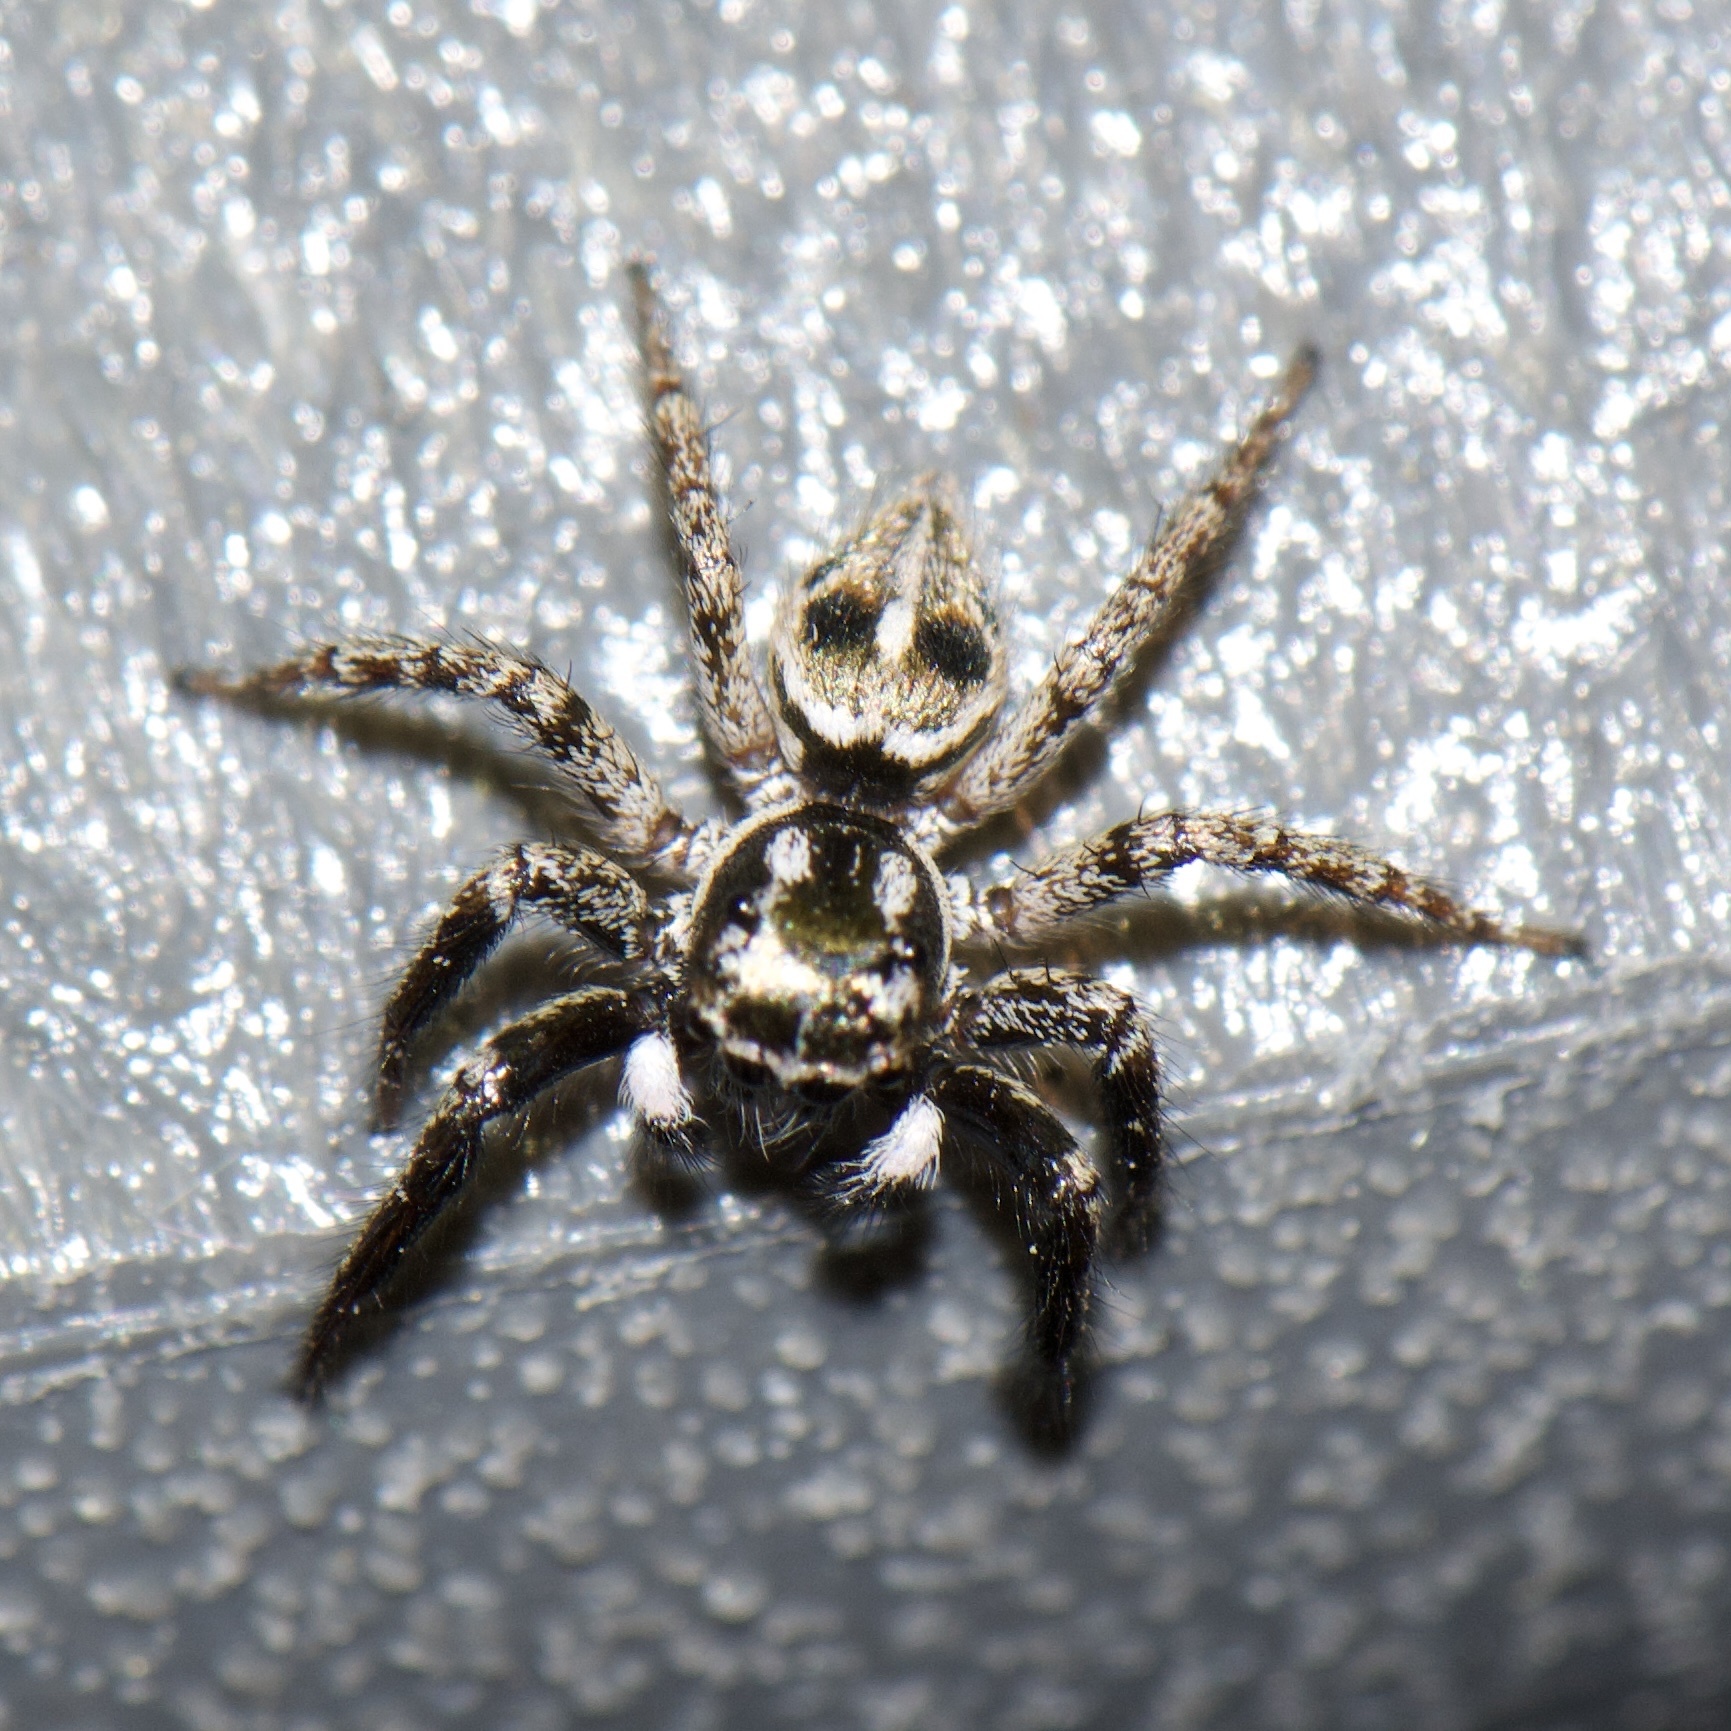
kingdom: Animalia
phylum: Arthropoda
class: Arachnida
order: Araneae
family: Salticidae
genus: Anasaitis
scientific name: Anasaitis canosa
